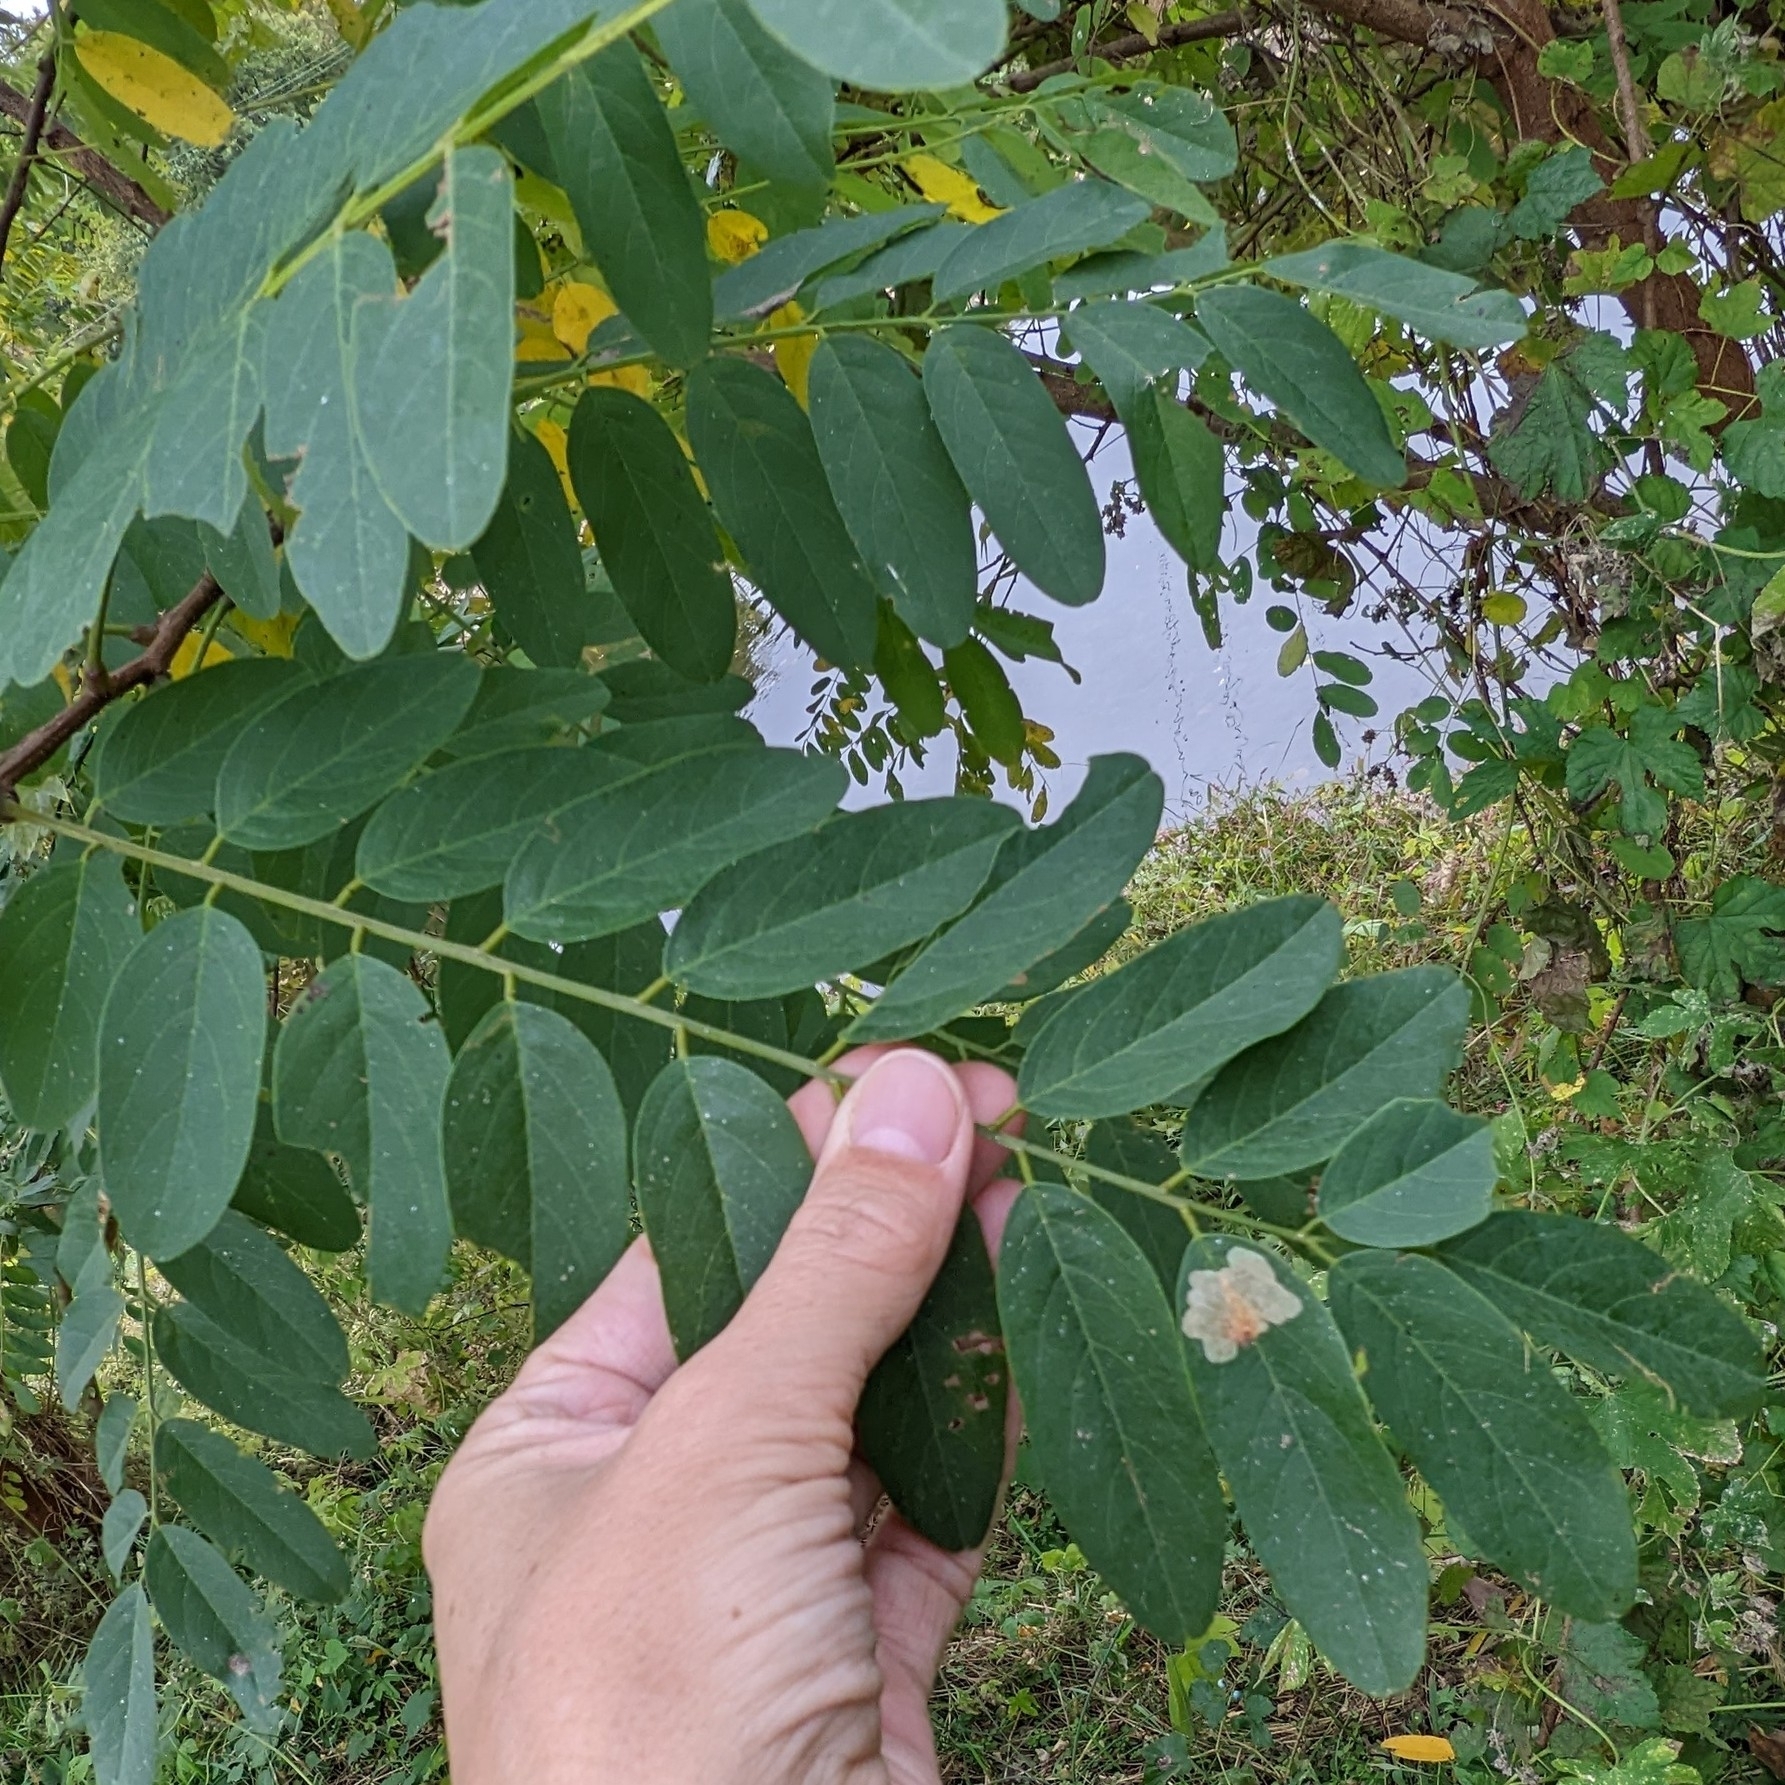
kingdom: Animalia
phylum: Arthropoda
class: Insecta
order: Lepidoptera
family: Gracillariidae
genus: Parectopa
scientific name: Parectopa robiniella
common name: Locust digitate leafminer
